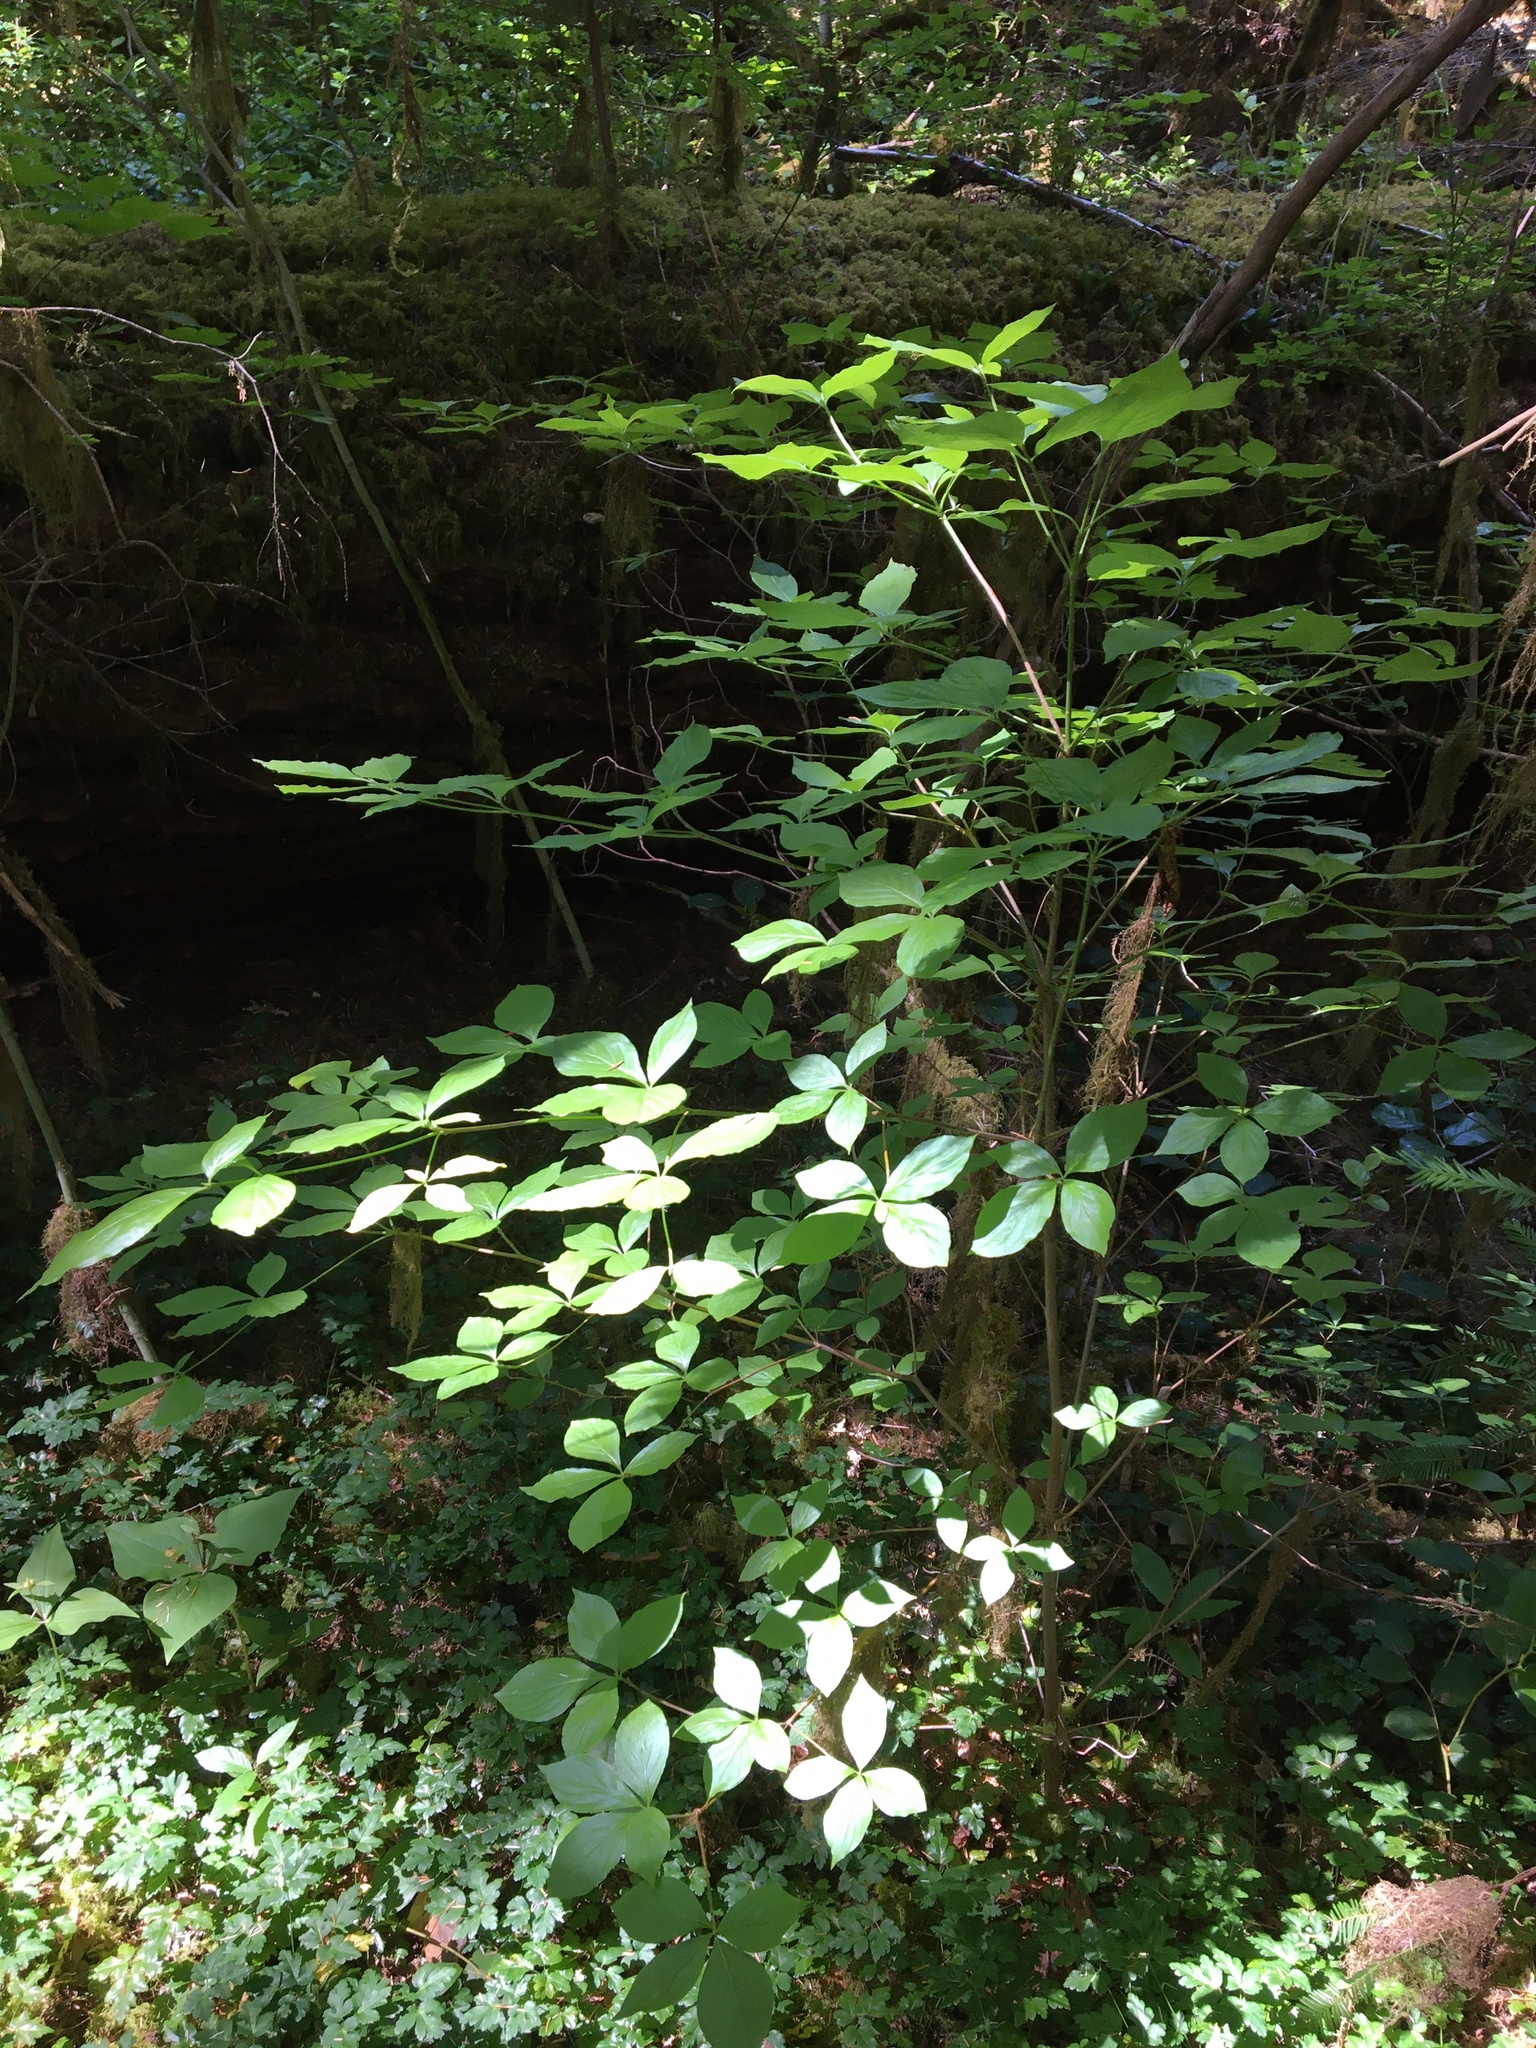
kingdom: Plantae
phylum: Tracheophyta
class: Magnoliopsida
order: Cornales
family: Cornaceae
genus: Cornus
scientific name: Cornus nuttallii
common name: Pacific dogwood
